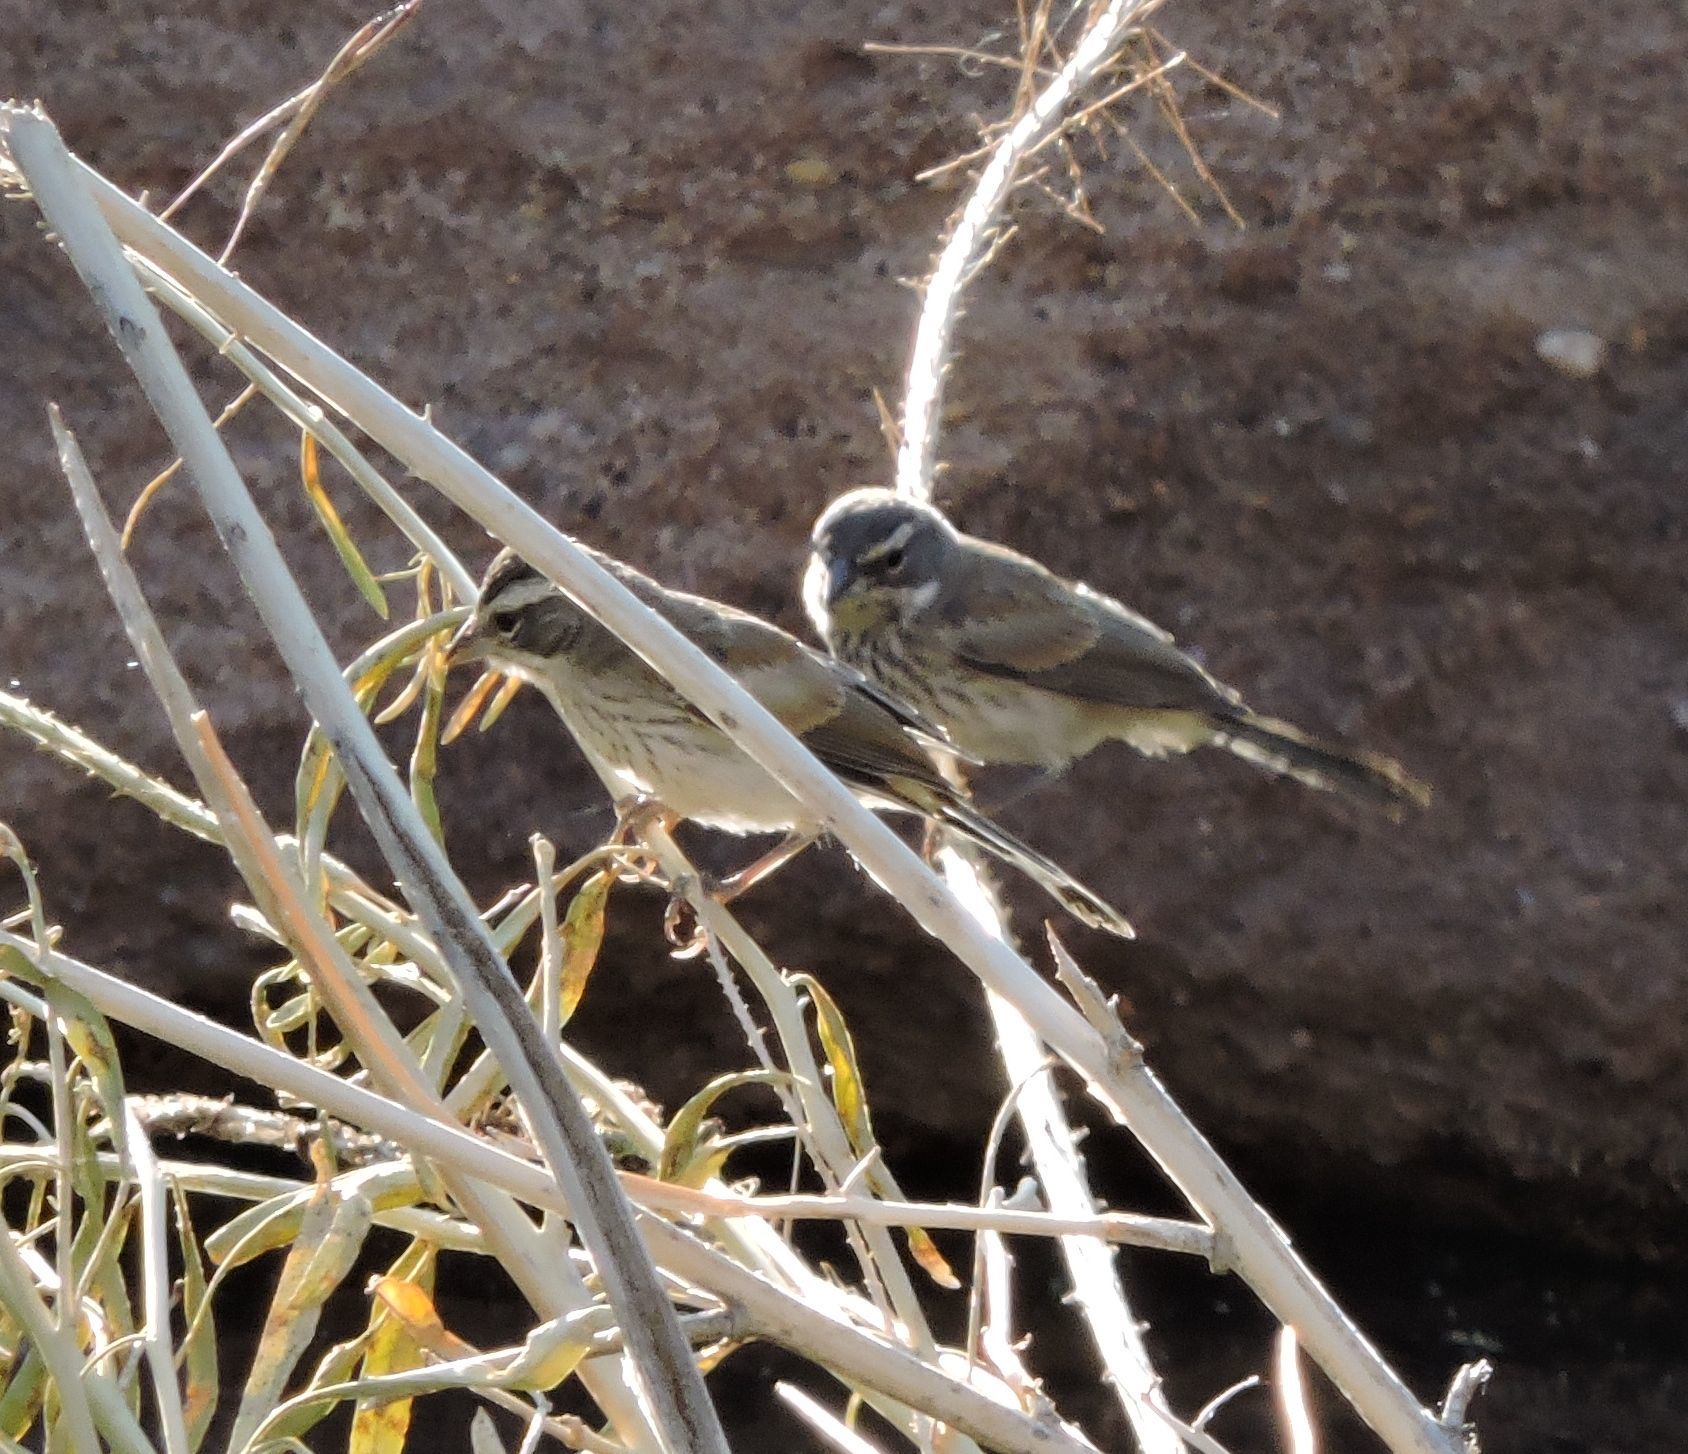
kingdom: Animalia
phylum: Chordata
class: Aves
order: Passeriformes
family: Passerellidae
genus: Amphispiza
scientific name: Amphispiza bilineata
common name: Black-throated sparrow
